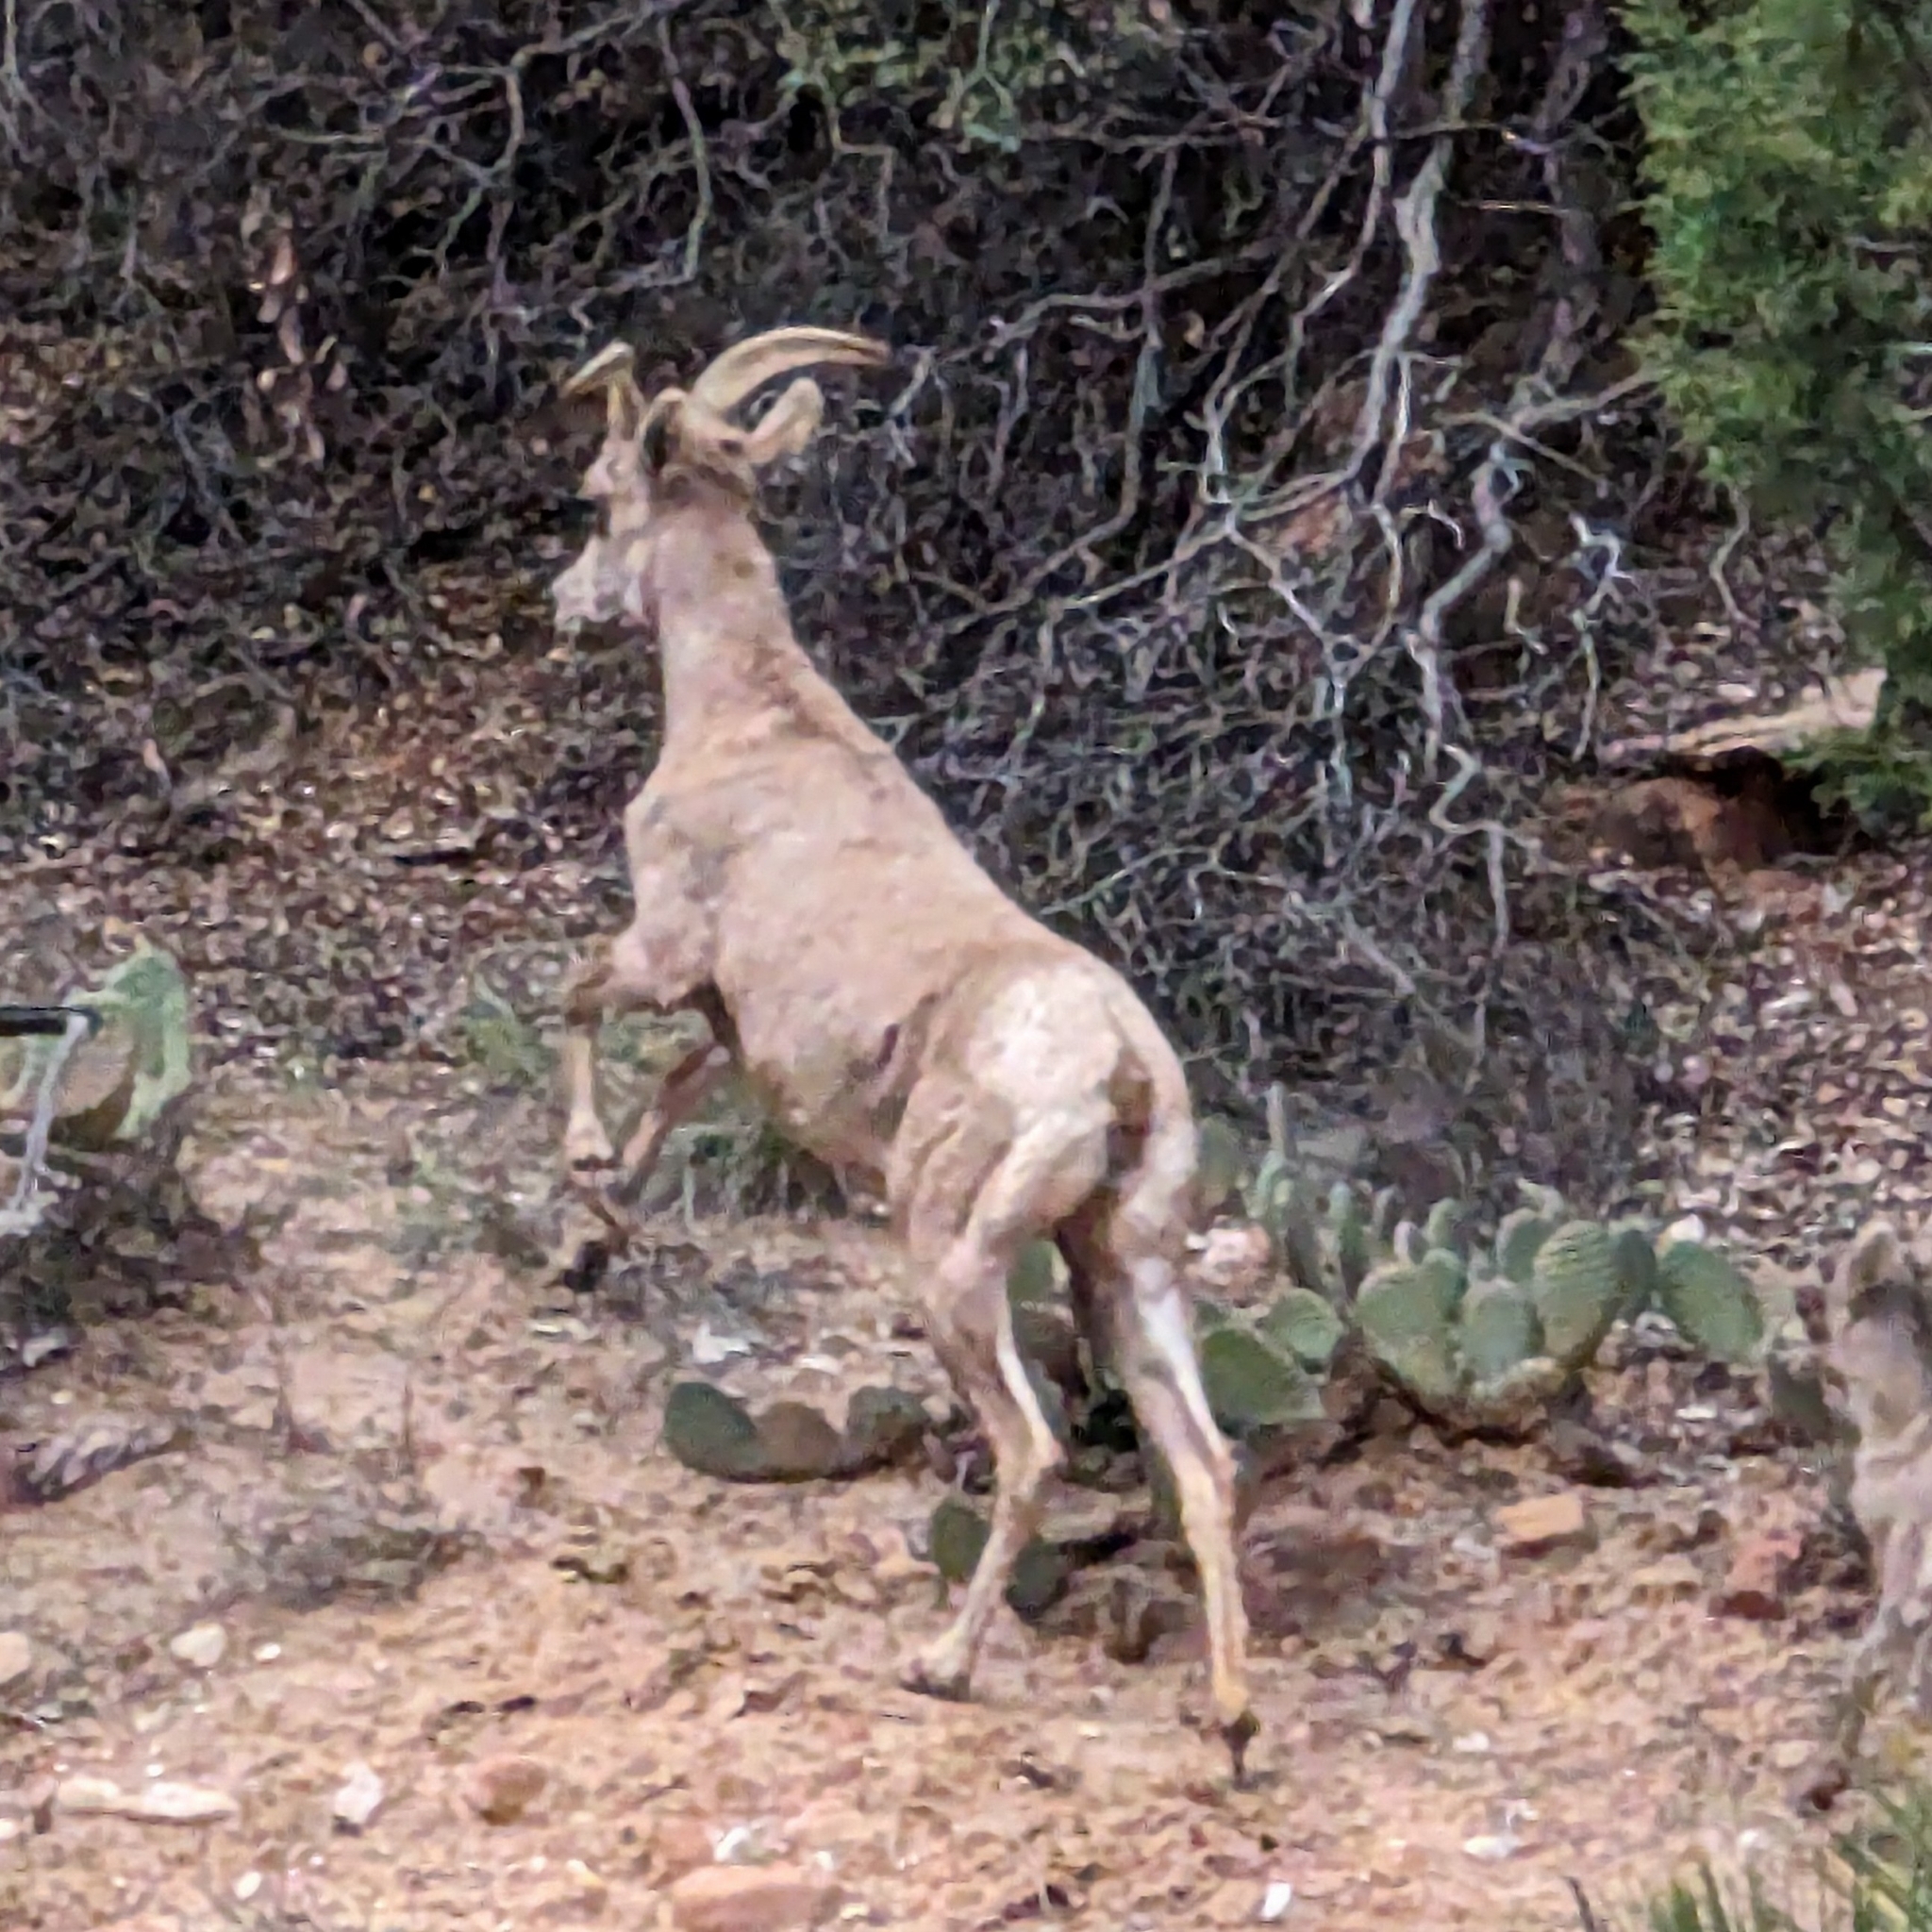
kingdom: Animalia
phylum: Chordata
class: Mammalia
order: Artiodactyla
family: Bovidae
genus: Ovis
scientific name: Ovis canadensis
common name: Bighorn sheep
